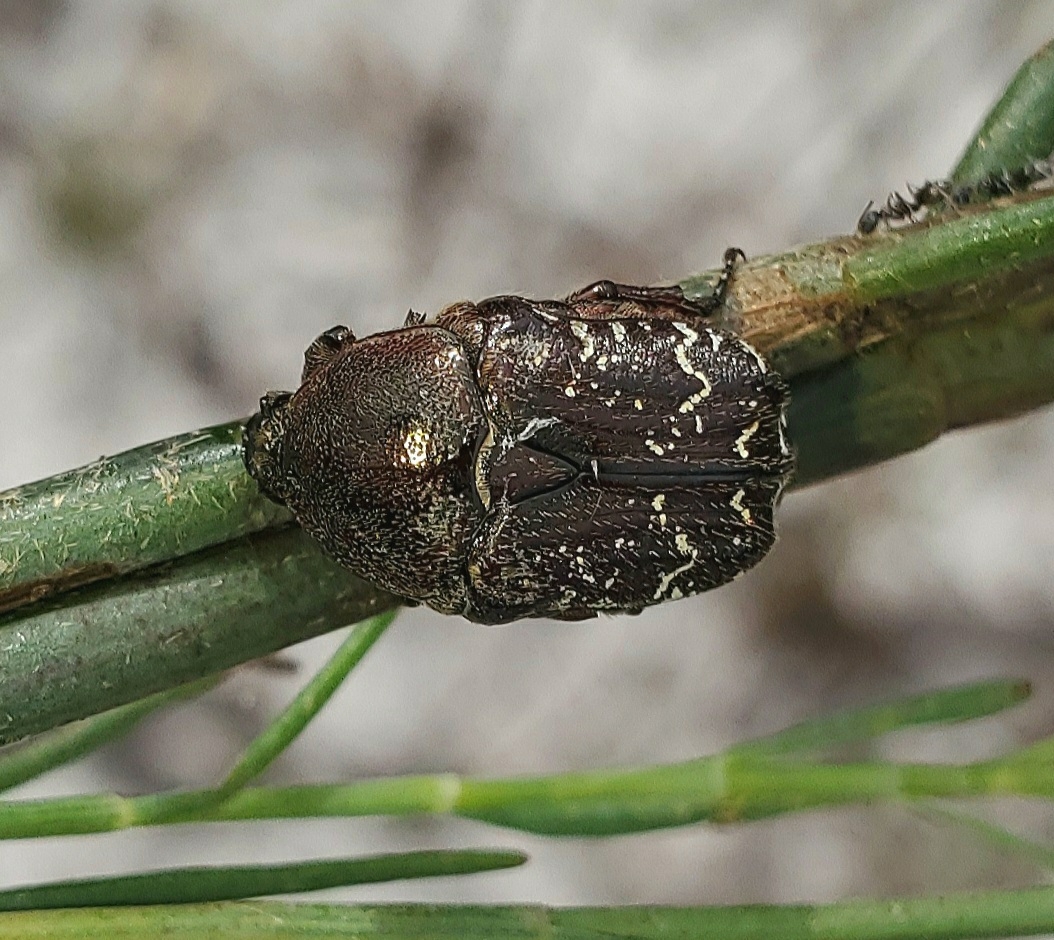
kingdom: Animalia
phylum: Arthropoda
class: Insecta
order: Coleoptera
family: Scarabaeidae
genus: Euphoria
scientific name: Euphoria sepulcralis
